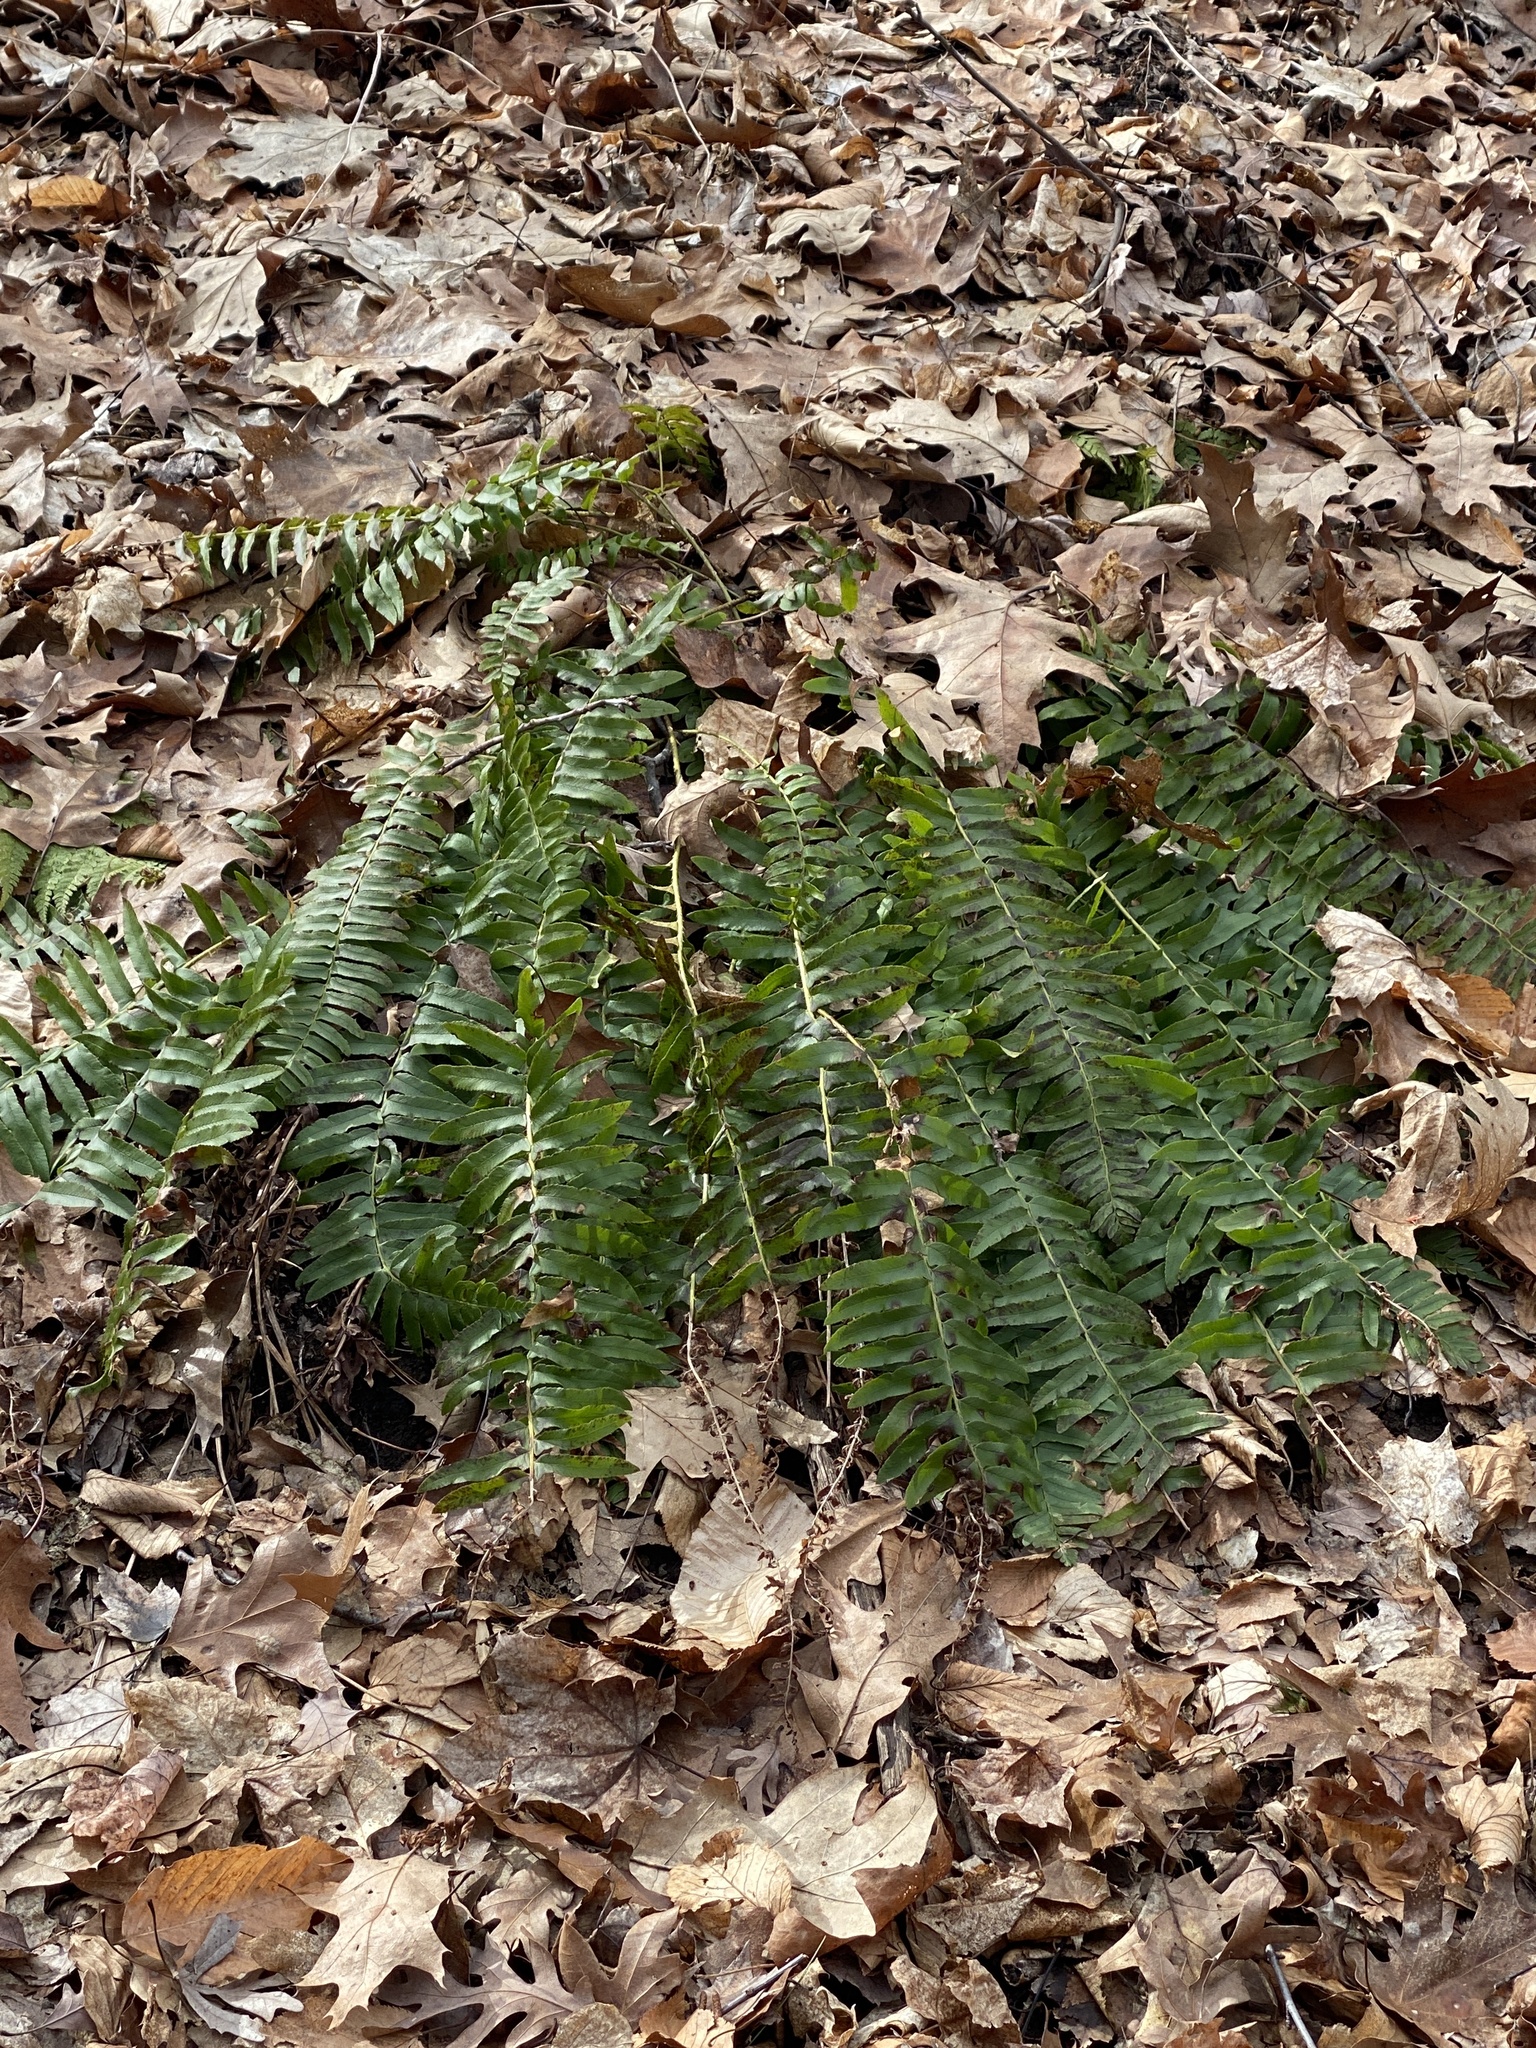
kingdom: Plantae
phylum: Tracheophyta
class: Polypodiopsida
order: Polypodiales
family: Dryopteridaceae
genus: Polystichum
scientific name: Polystichum acrostichoides
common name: Christmas fern
